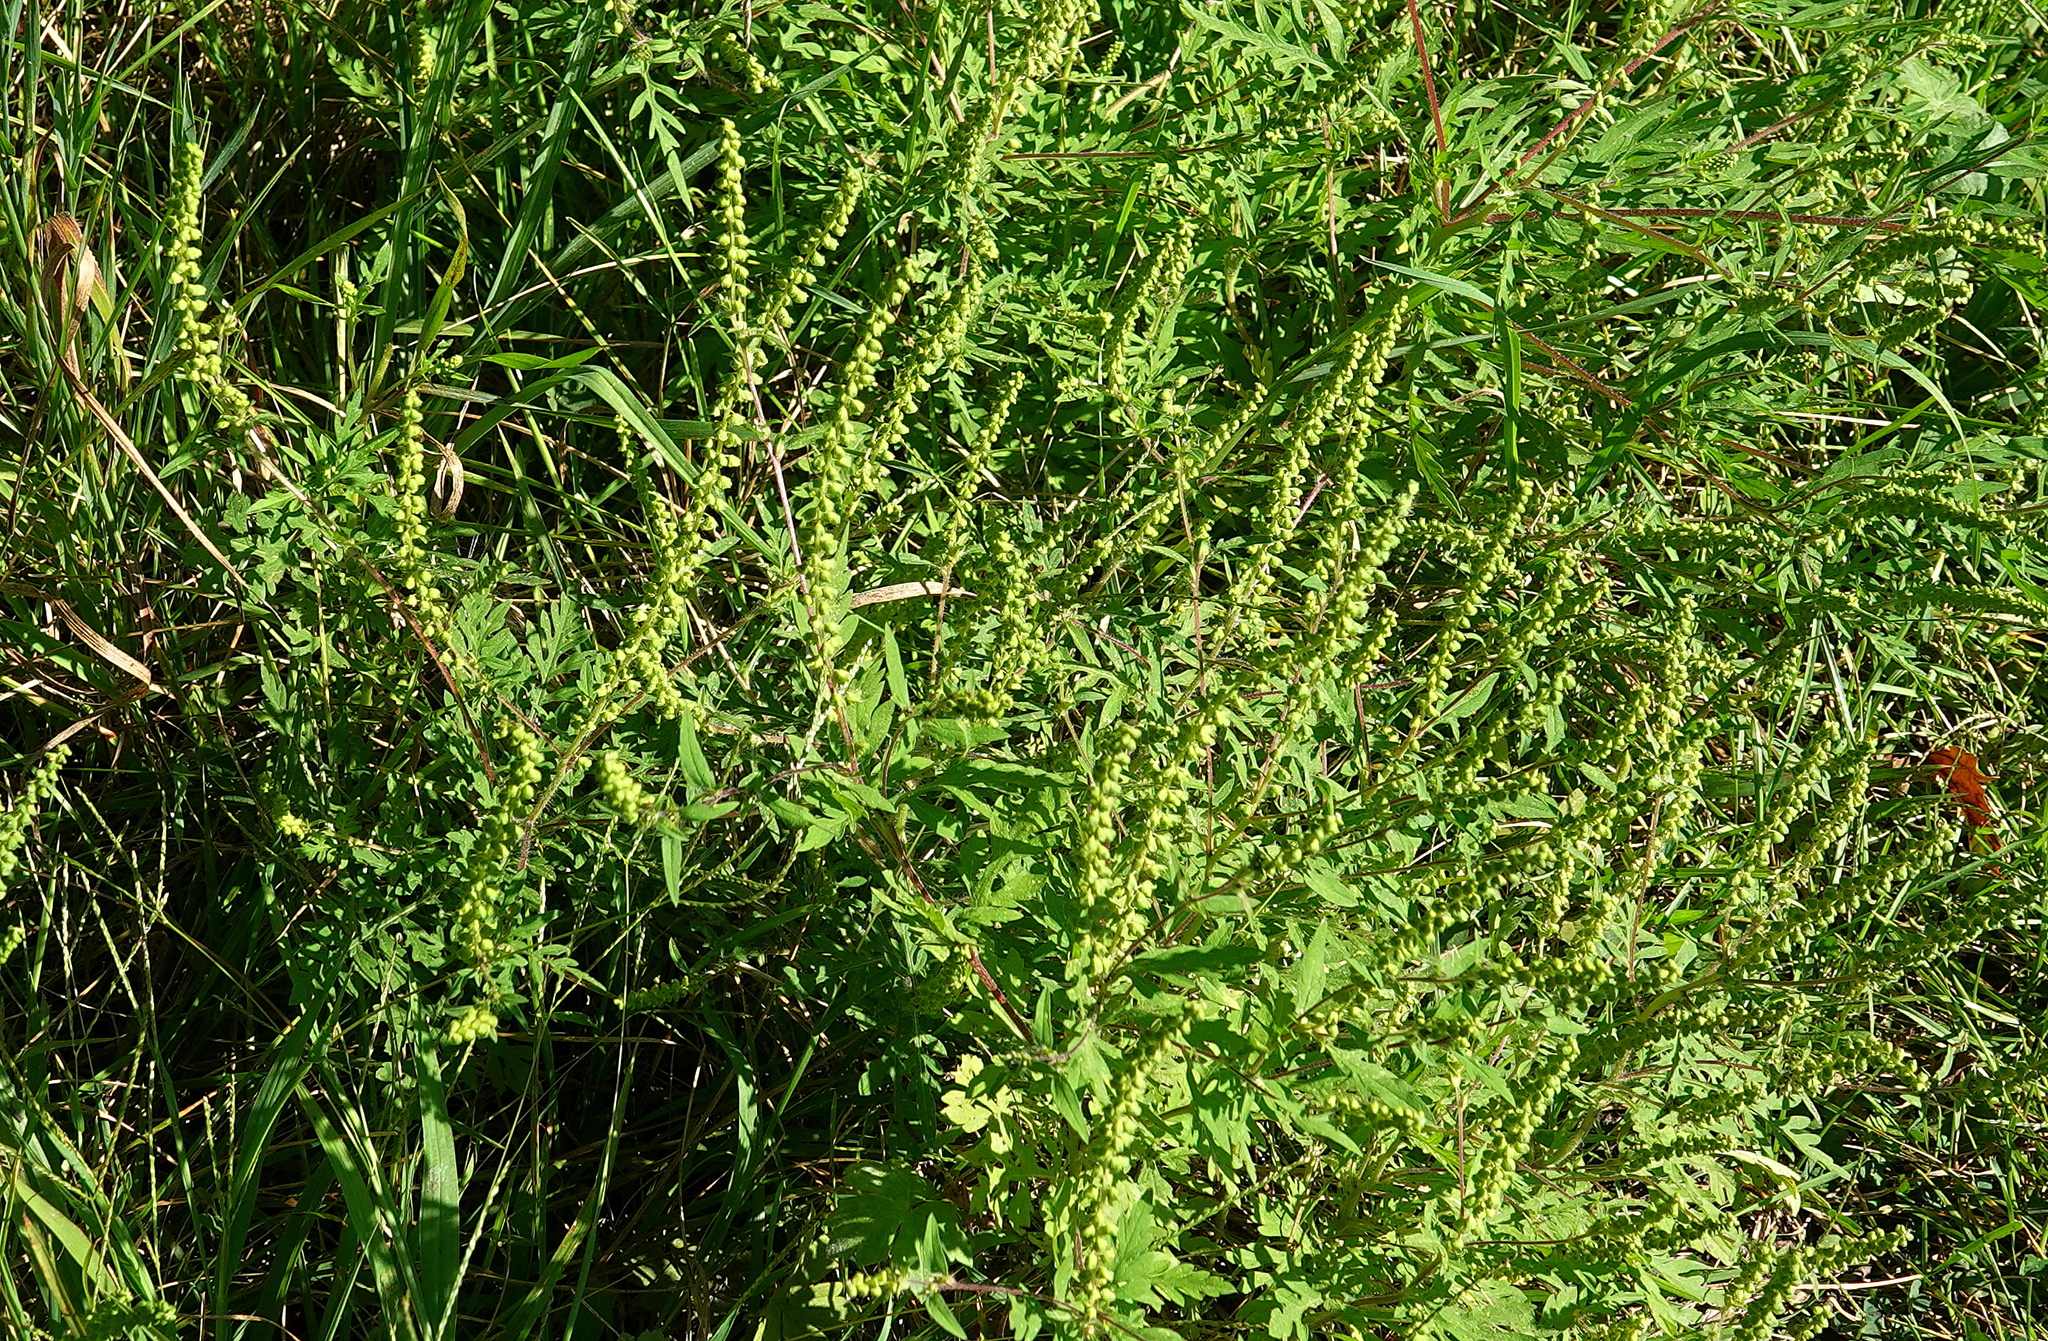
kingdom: Plantae
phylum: Tracheophyta
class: Magnoliopsida
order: Asterales
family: Asteraceae
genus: Ambrosia
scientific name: Ambrosia artemisiifolia
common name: Annual ragweed
